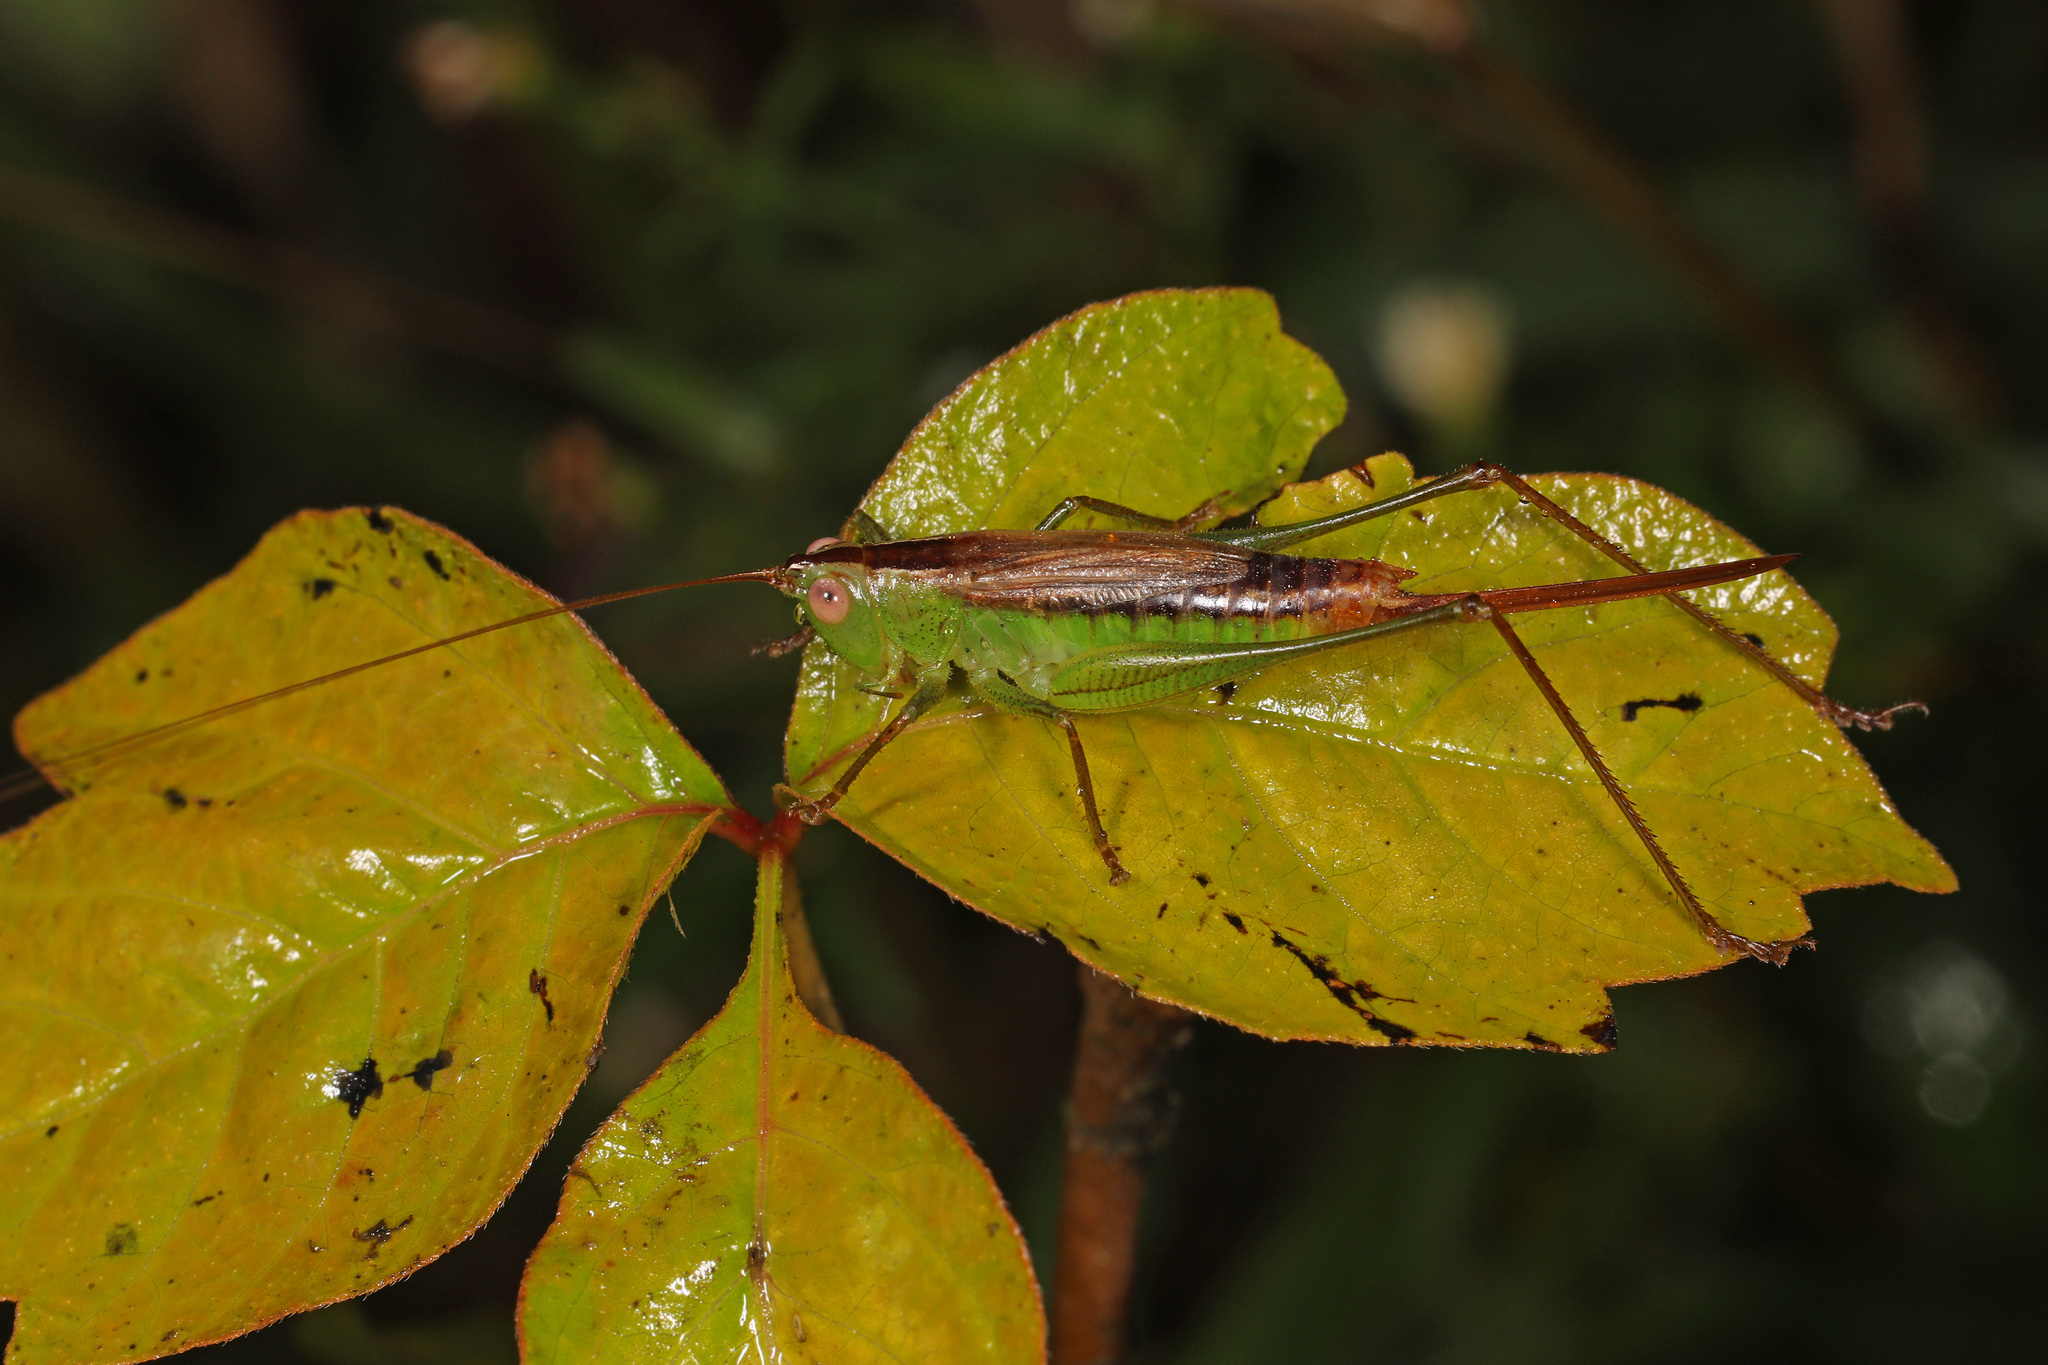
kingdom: Animalia
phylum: Arthropoda
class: Insecta
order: Orthoptera
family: Tettigoniidae
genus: Conocephalus
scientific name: Conocephalus brevipennis
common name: Short-winged meadow katydid
